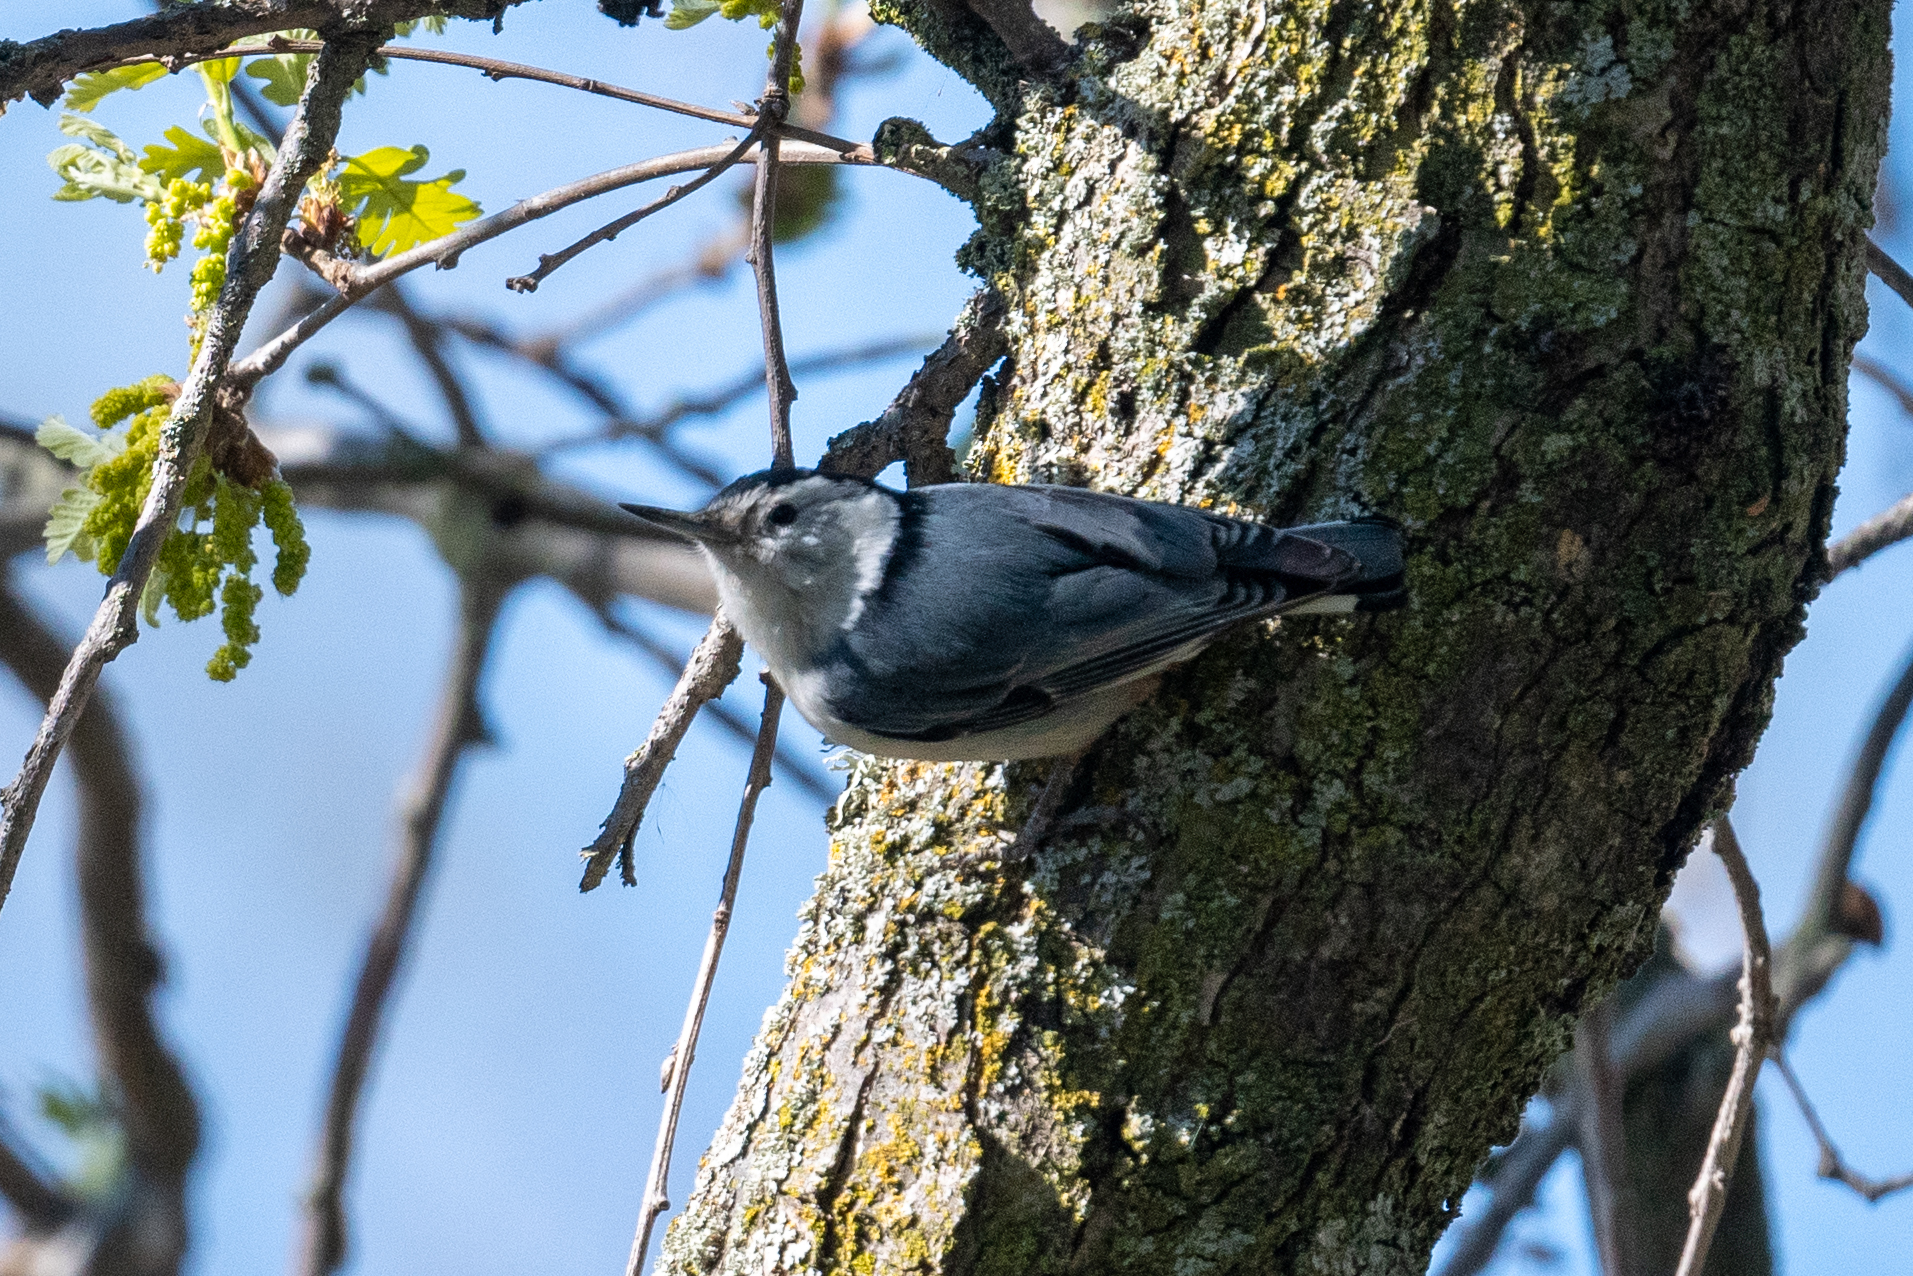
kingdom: Animalia
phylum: Chordata
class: Aves
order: Passeriformes
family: Sittidae
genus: Sitta
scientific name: Sitta carolinensis
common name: White-breasted nuthatch
